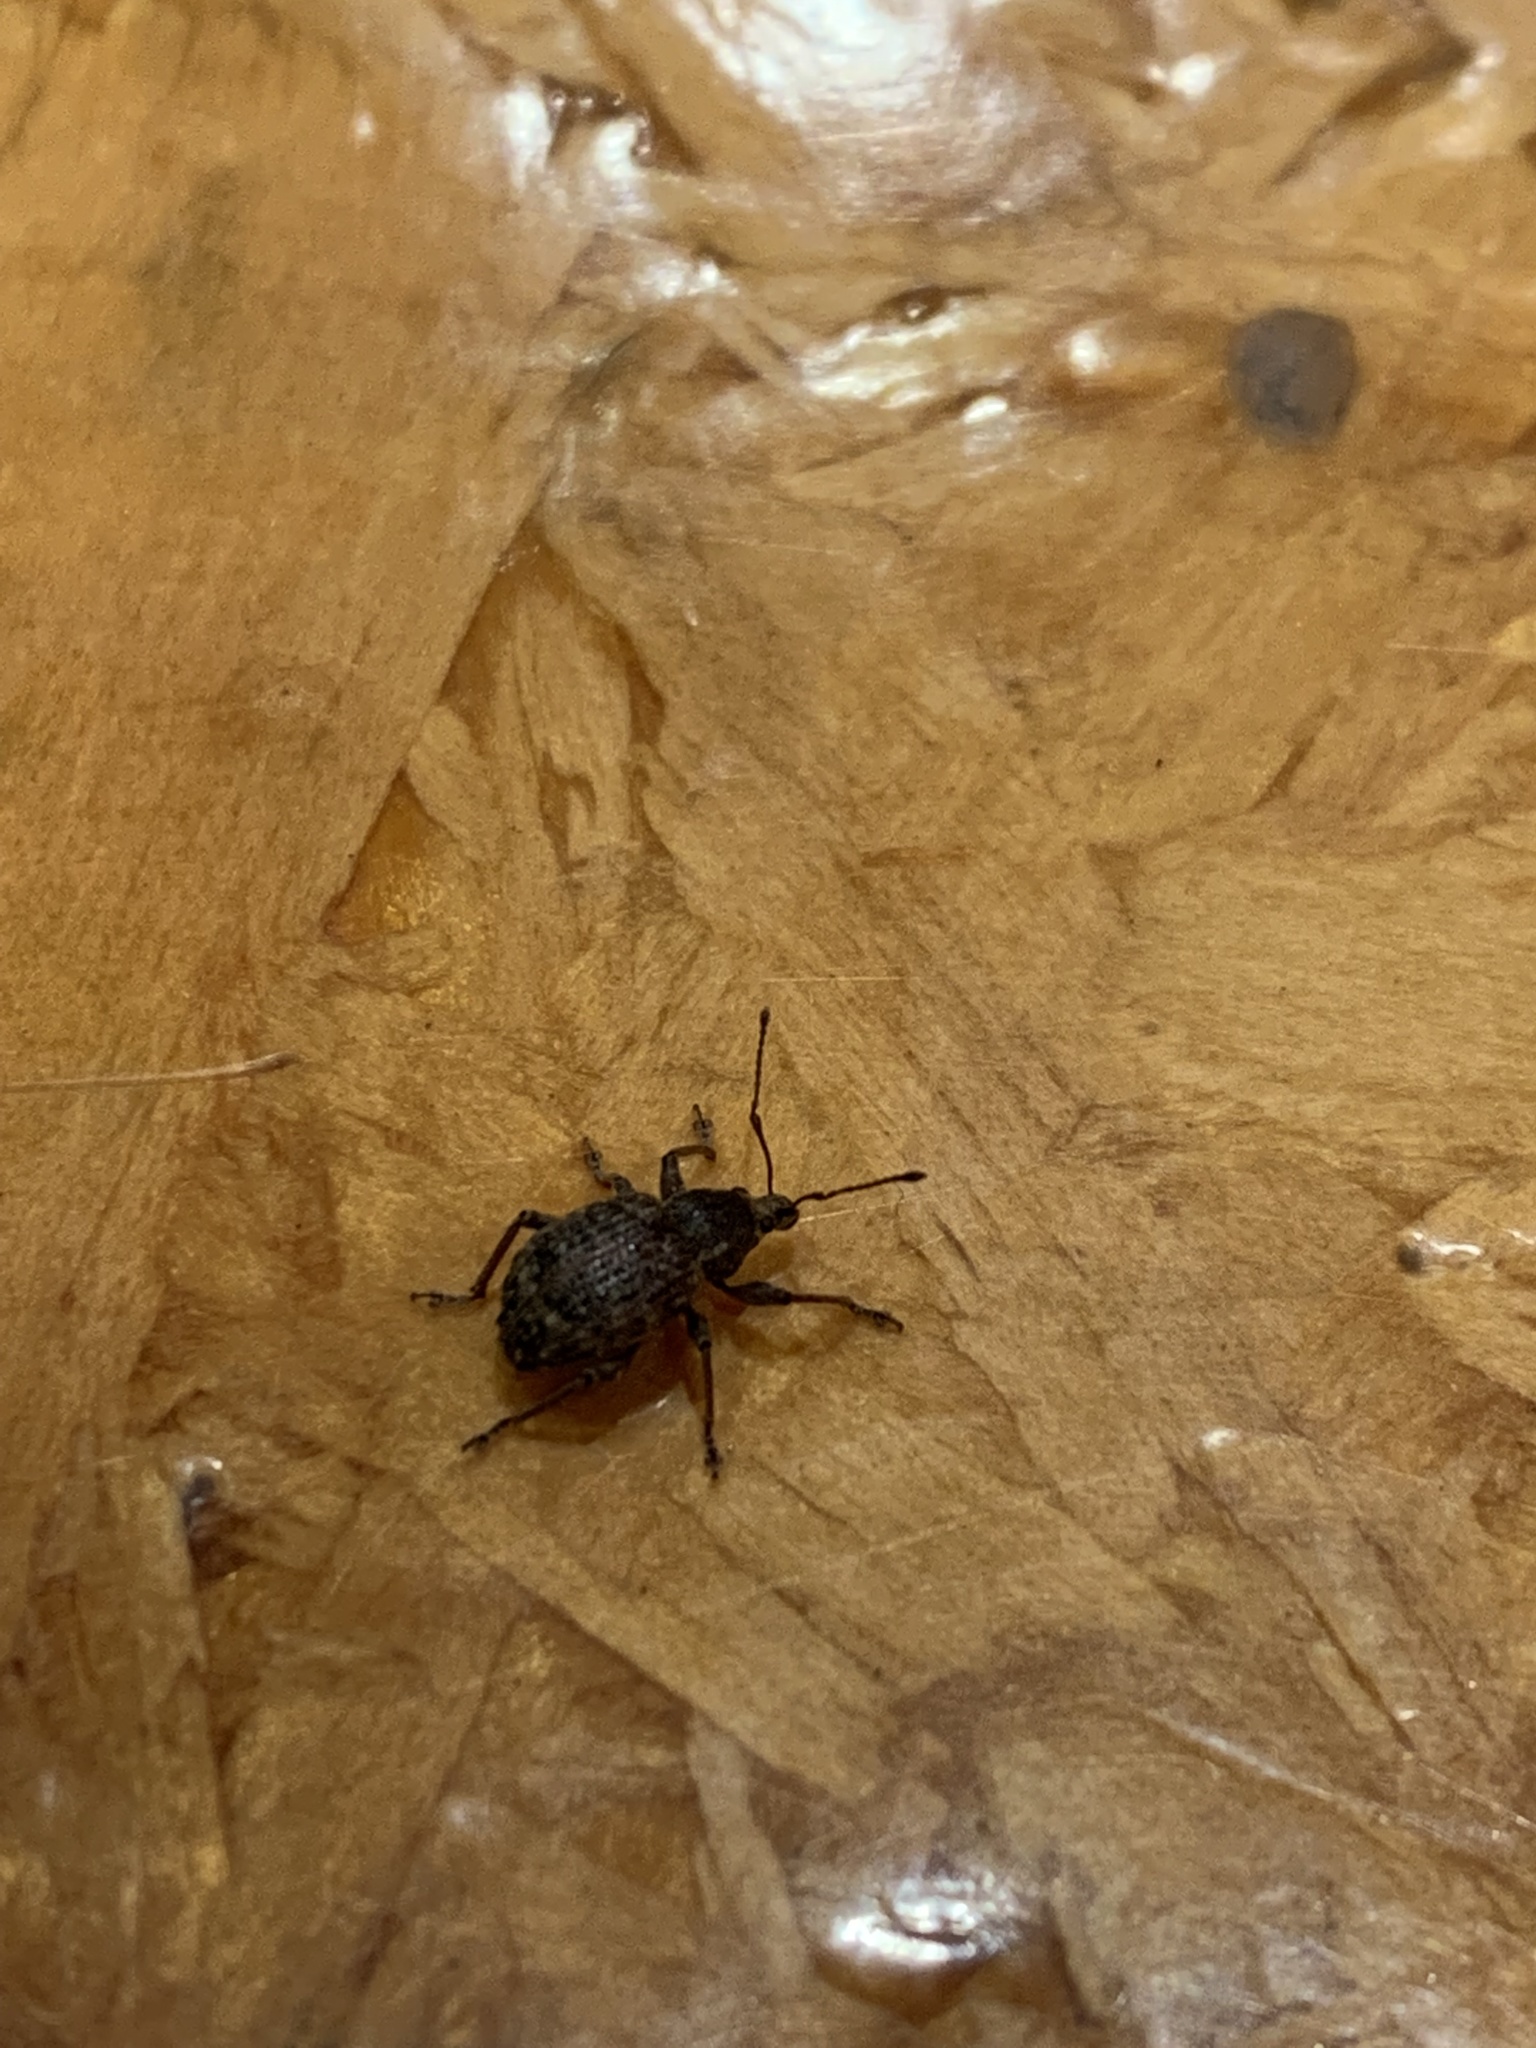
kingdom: Animalia
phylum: Arthropoda
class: Insecta
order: Coleoptera
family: Curculionidae
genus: Phlyctinus
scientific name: Phlyctinus callosus
